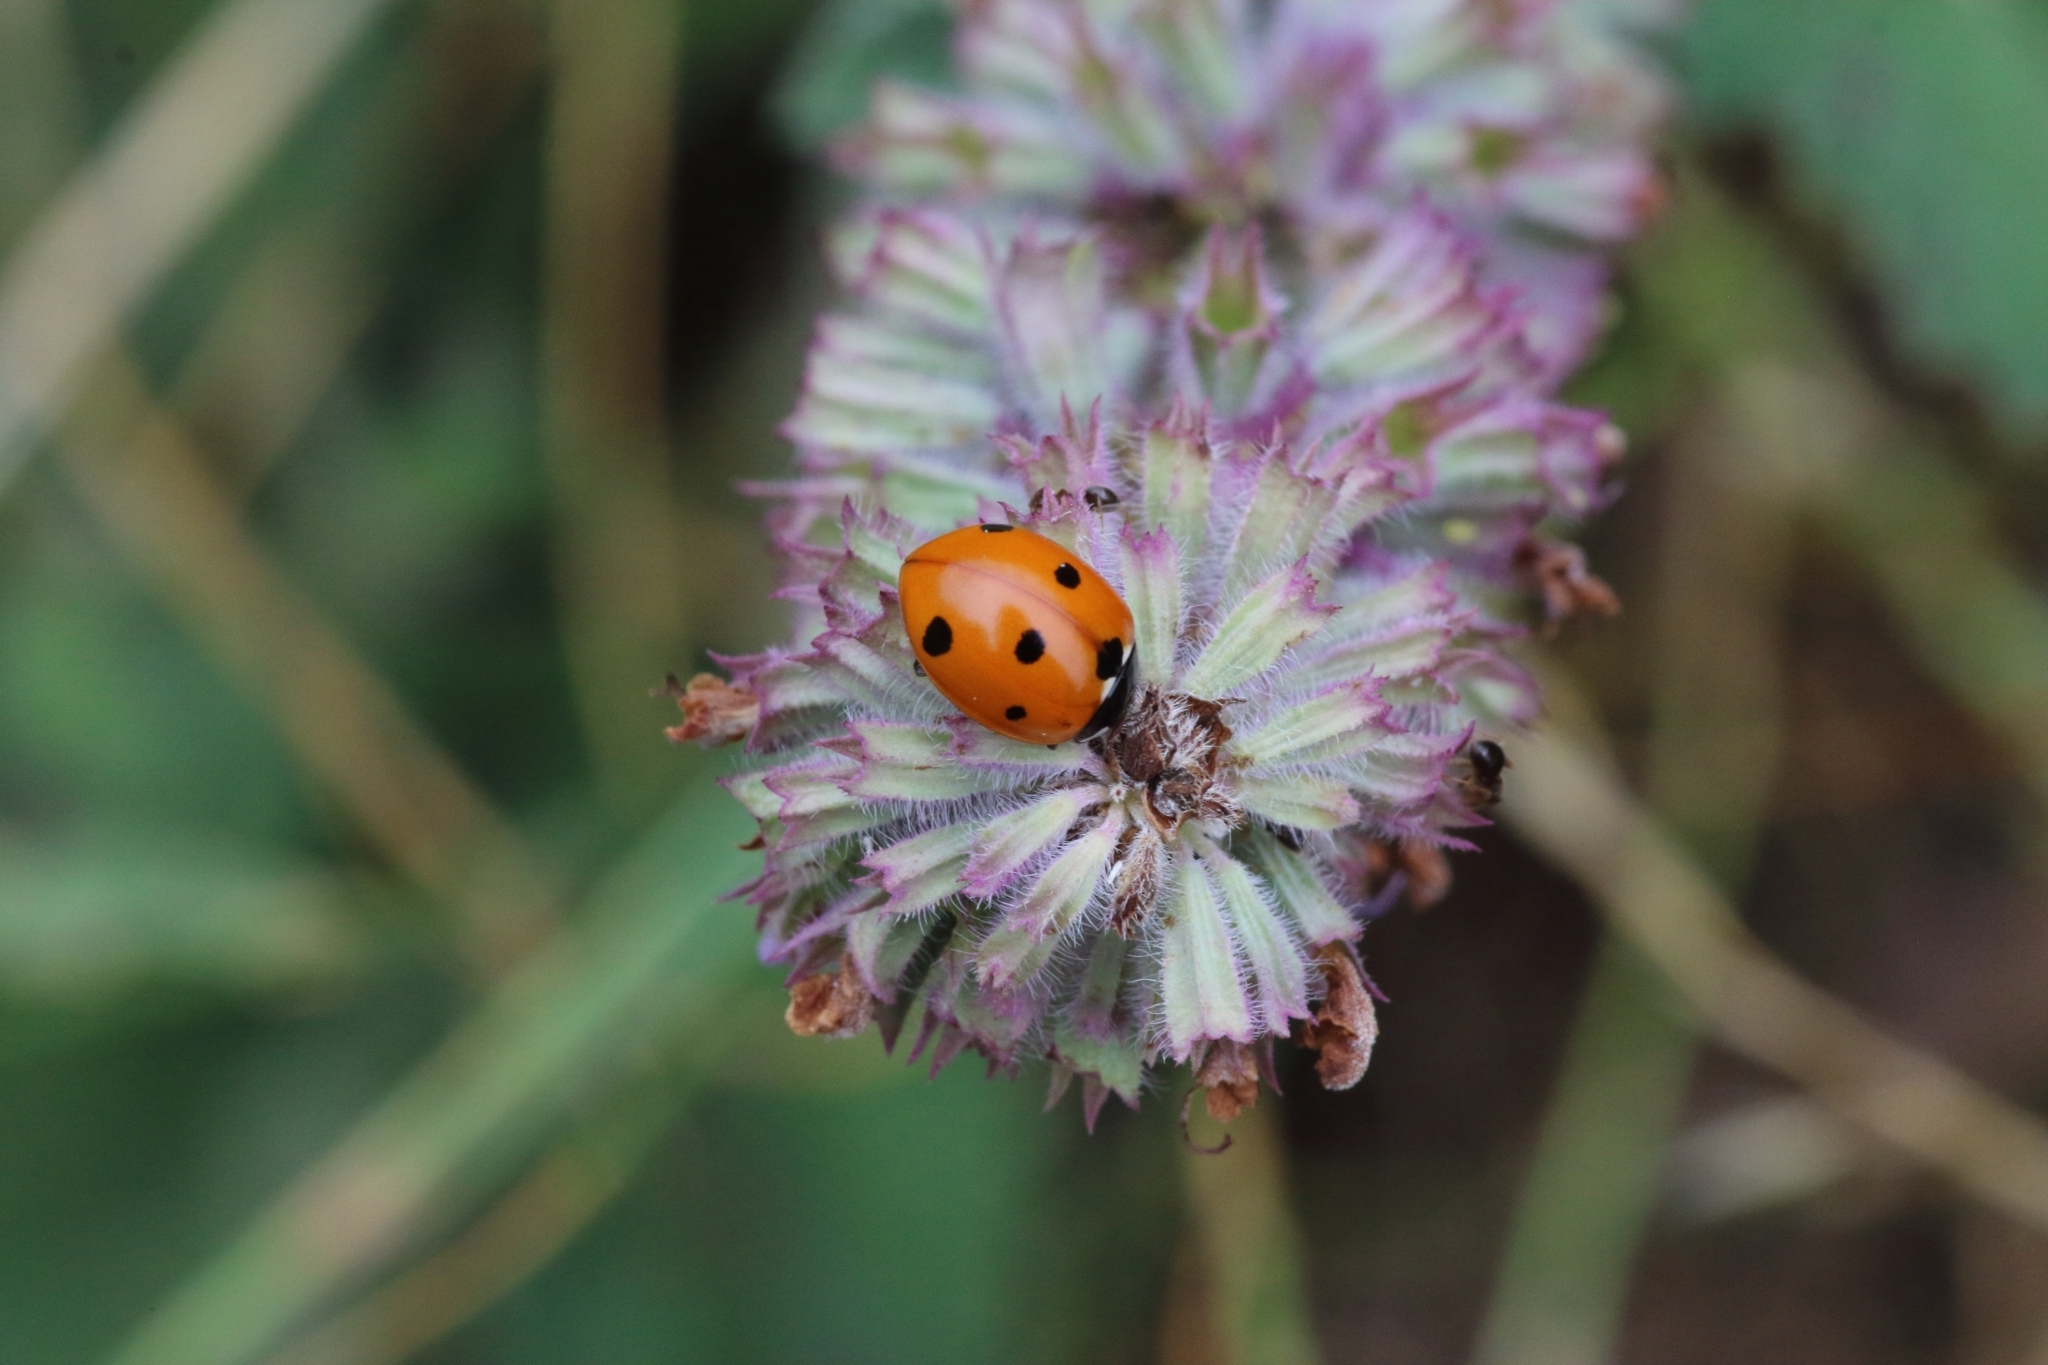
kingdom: Animalia
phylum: Arthropoda
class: Insecta
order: Coleoptera
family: Coccinellidae
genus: Coccinella
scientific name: Coccinella septempunctata
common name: Sevenspotted lady beetle
